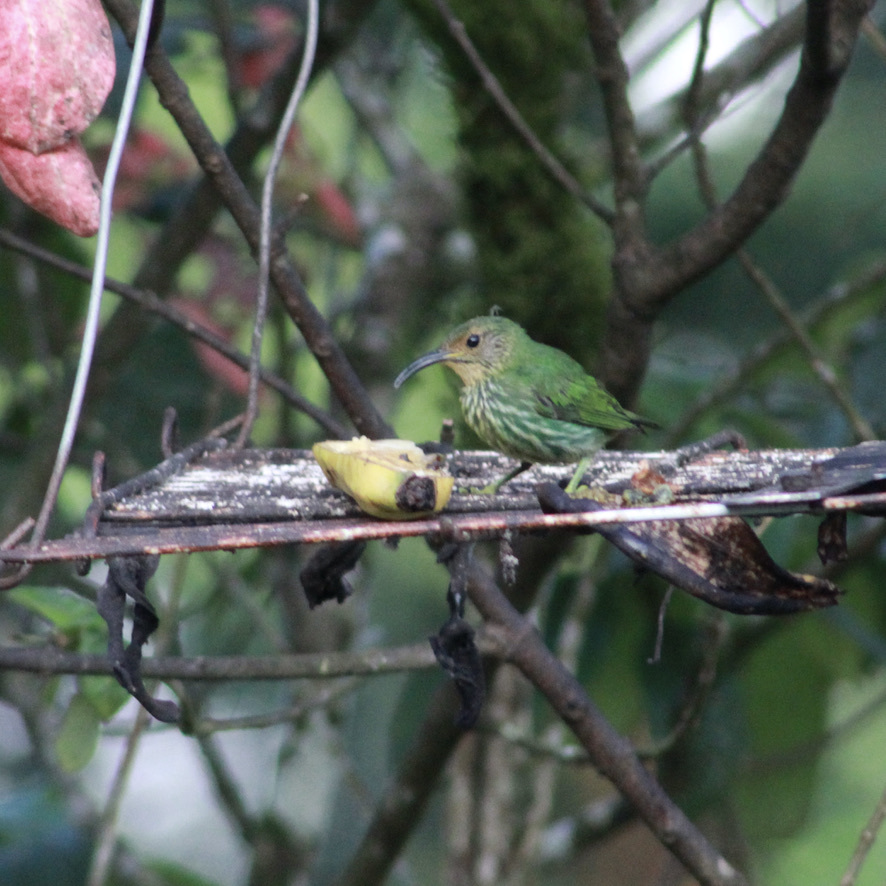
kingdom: Animalia
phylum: Chordata
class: Aves
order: Passeriformes
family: Thraupidae
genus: Cyanerpes
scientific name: Cyanerpes caeruleus
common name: Purple honeycreeper
